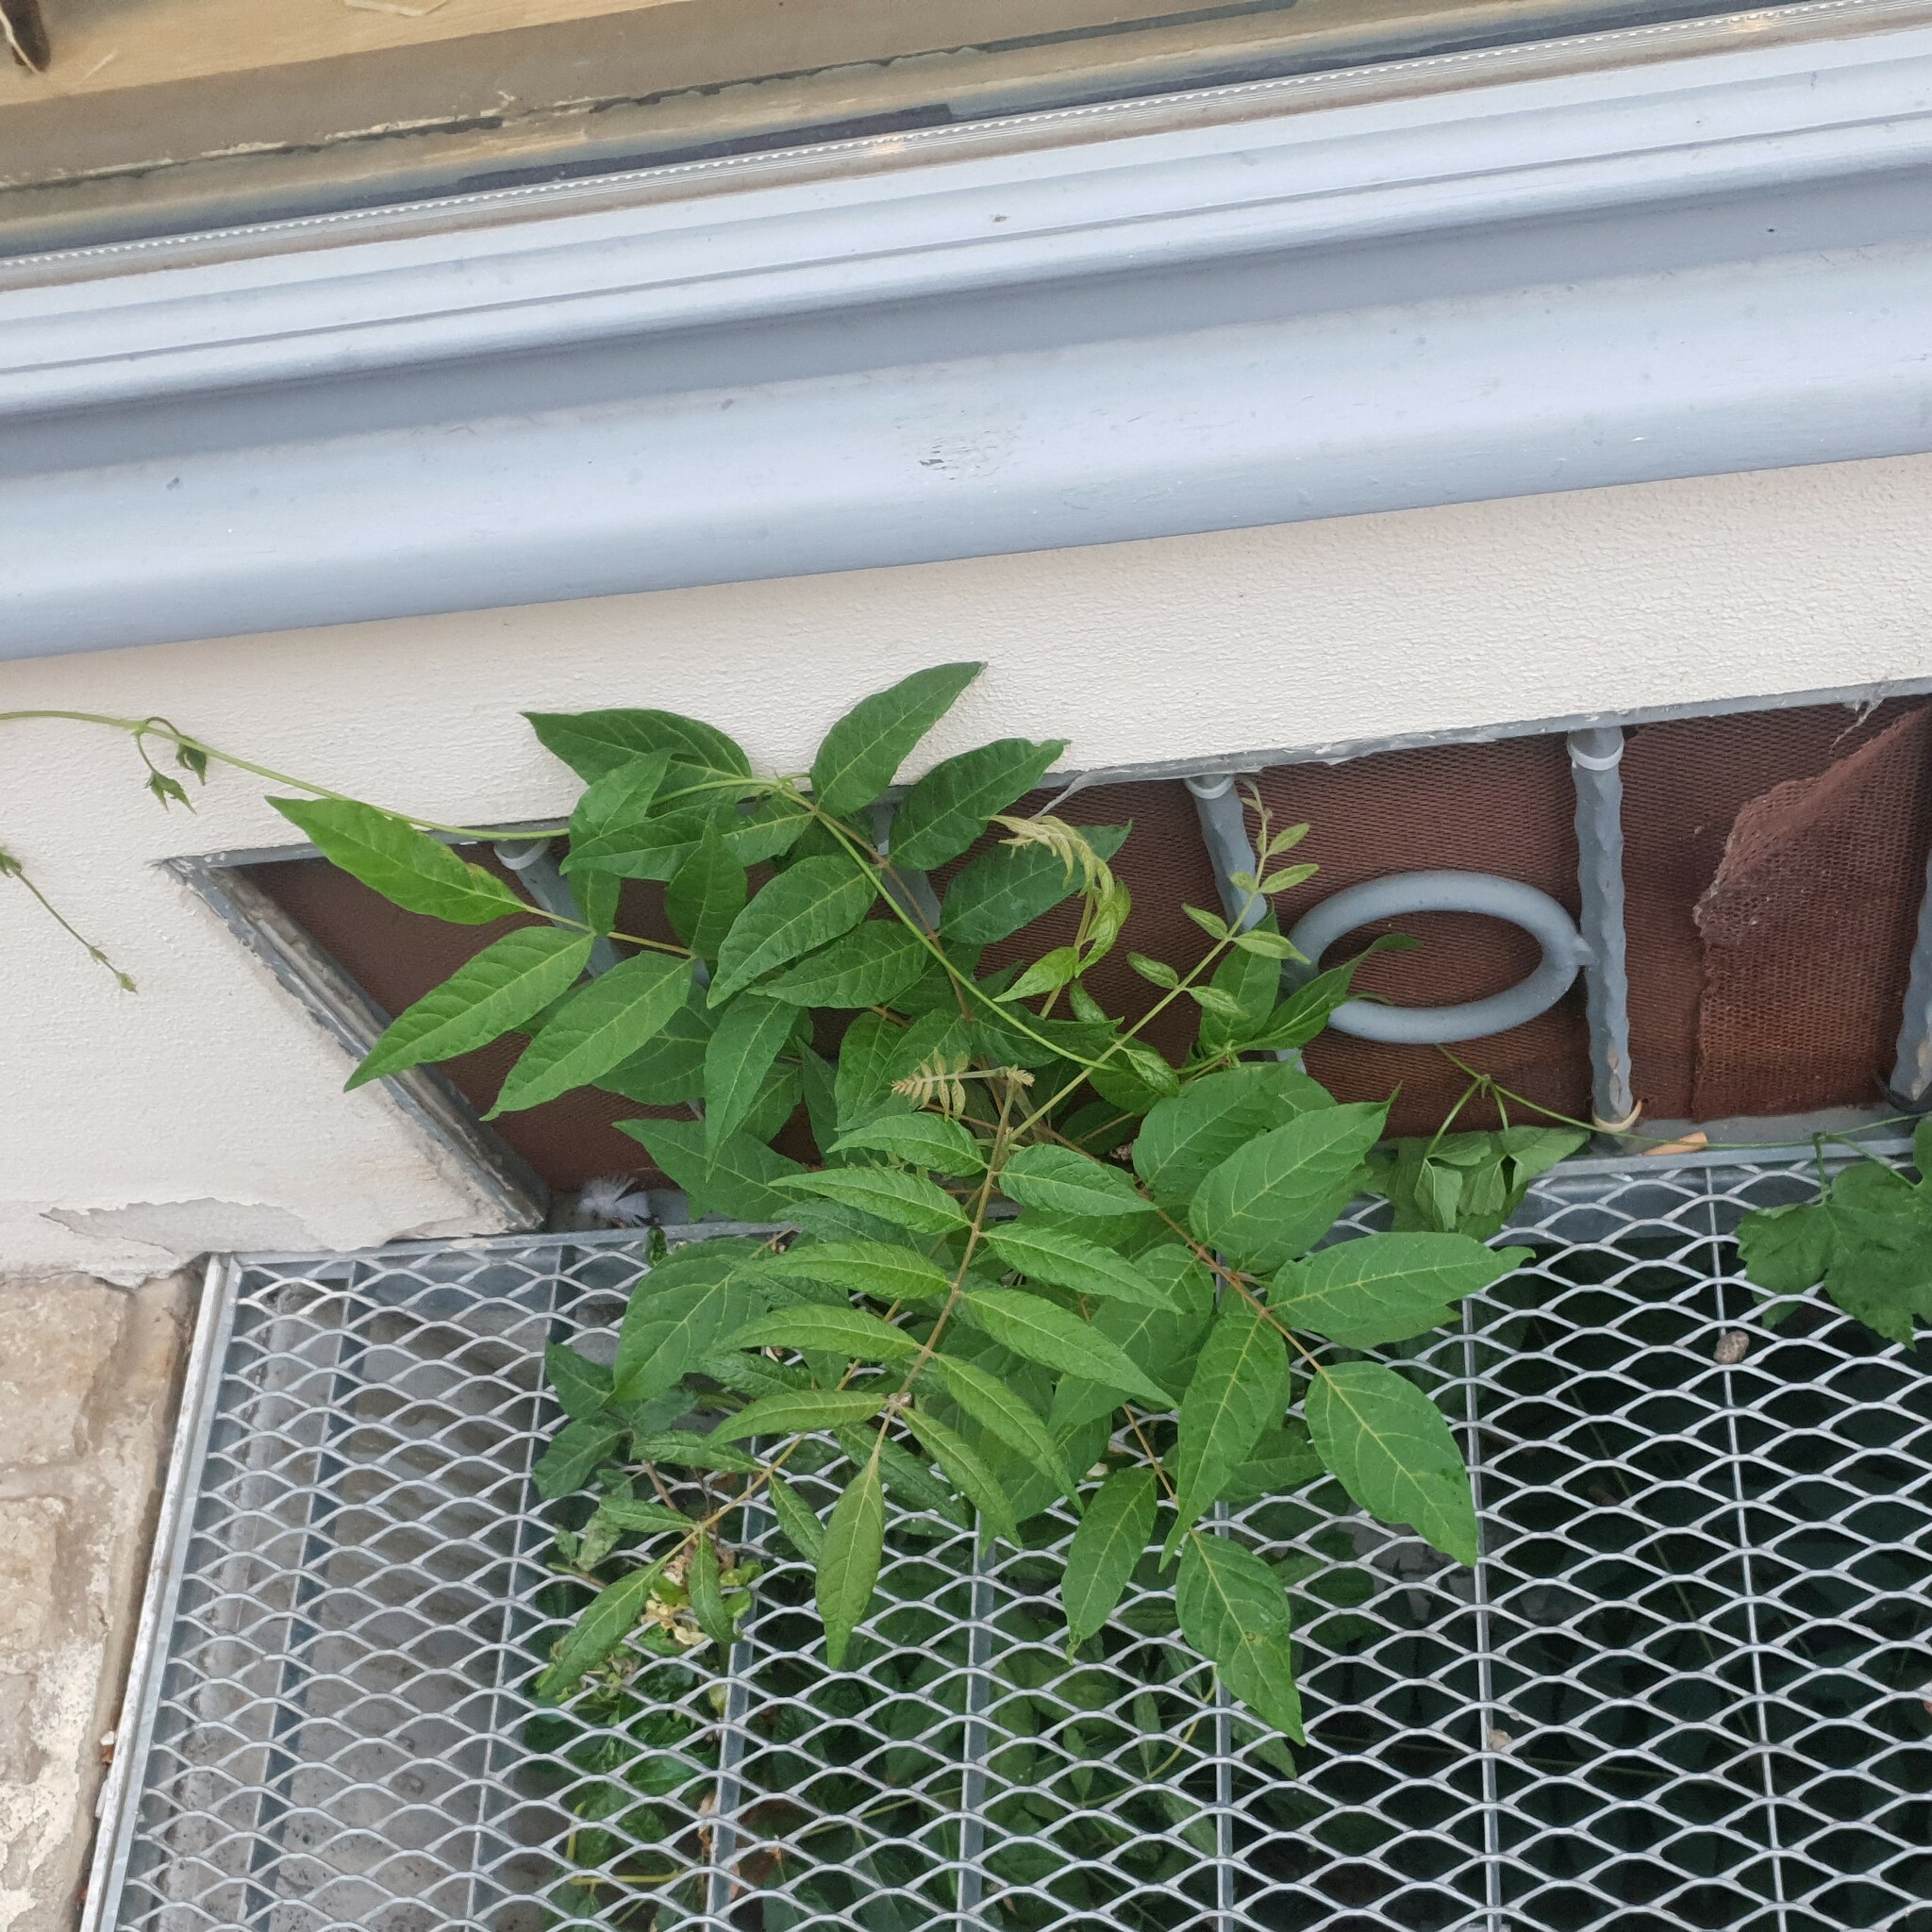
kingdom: Plantae
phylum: Tracheophyta
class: Magnoliopsida
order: Sapindales
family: Simaroubaceae
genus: Ailanthus
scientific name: Ailanthus altissima
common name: Tree-of-heaven
